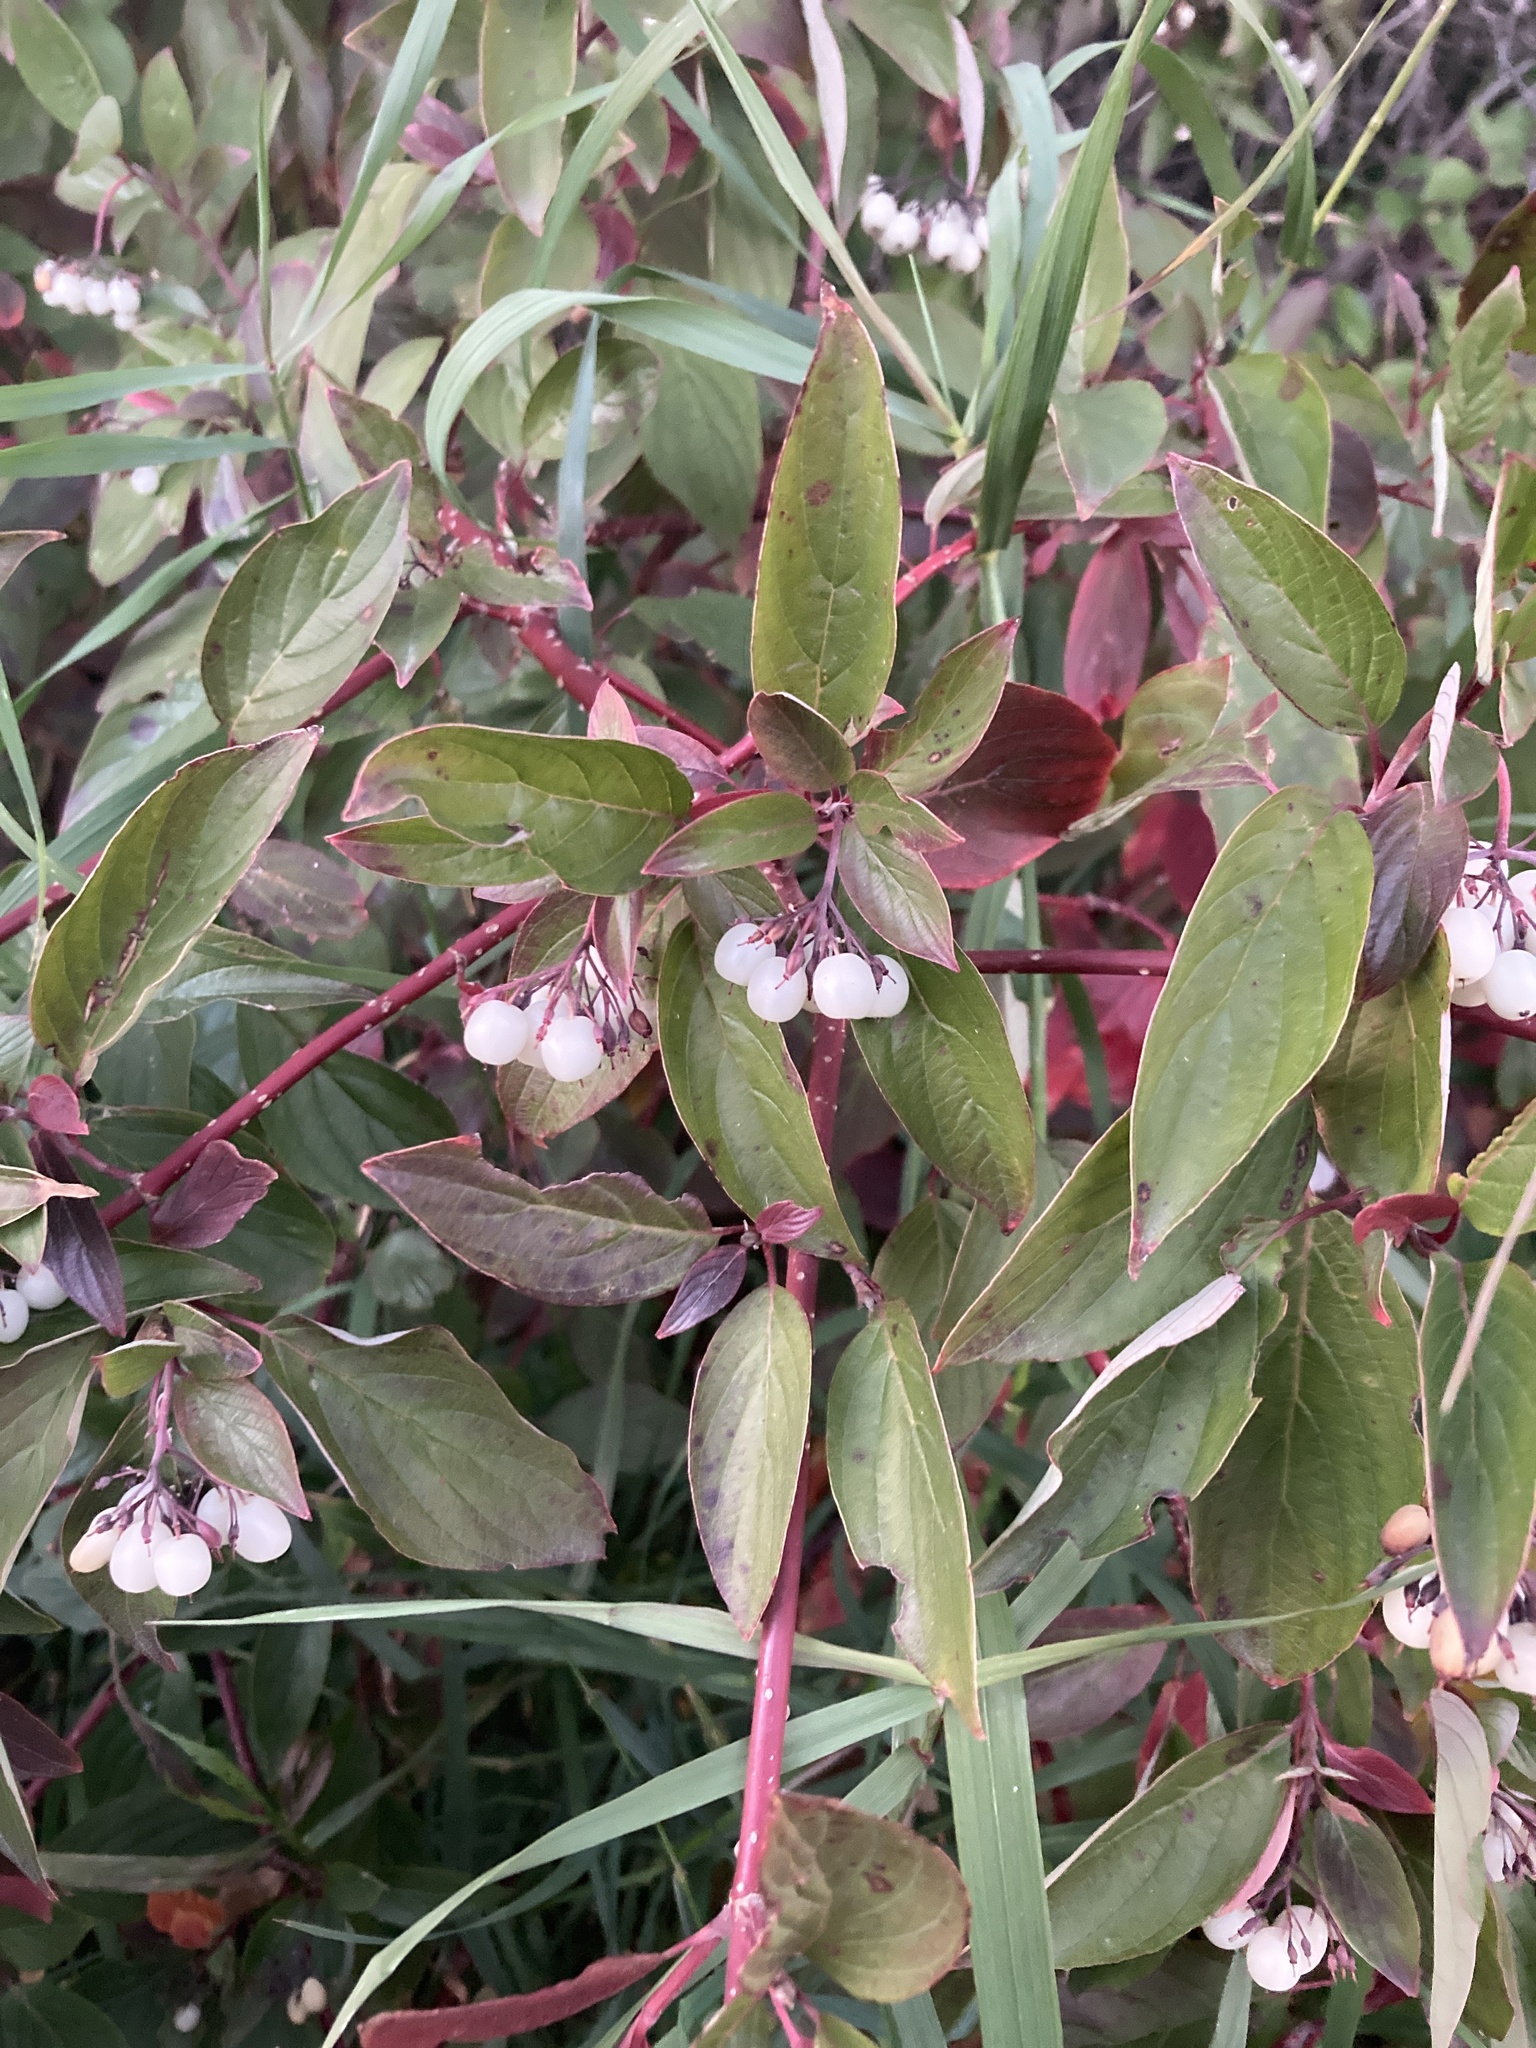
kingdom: Plantae
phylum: Tracheophyta
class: Magnoliopsida
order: Cornales
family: Cornaceae
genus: Cornus
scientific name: Cornus sericea
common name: Red-osier dogwood
